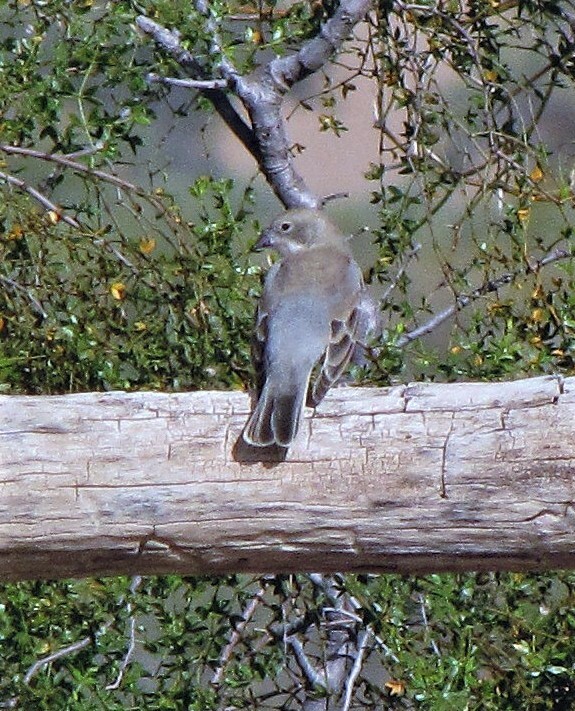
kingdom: Animalia
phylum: Chordata
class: Aves
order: Passeriformes
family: Thraupidae
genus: Diuca
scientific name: Diuca diuca
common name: Common diuca finch
